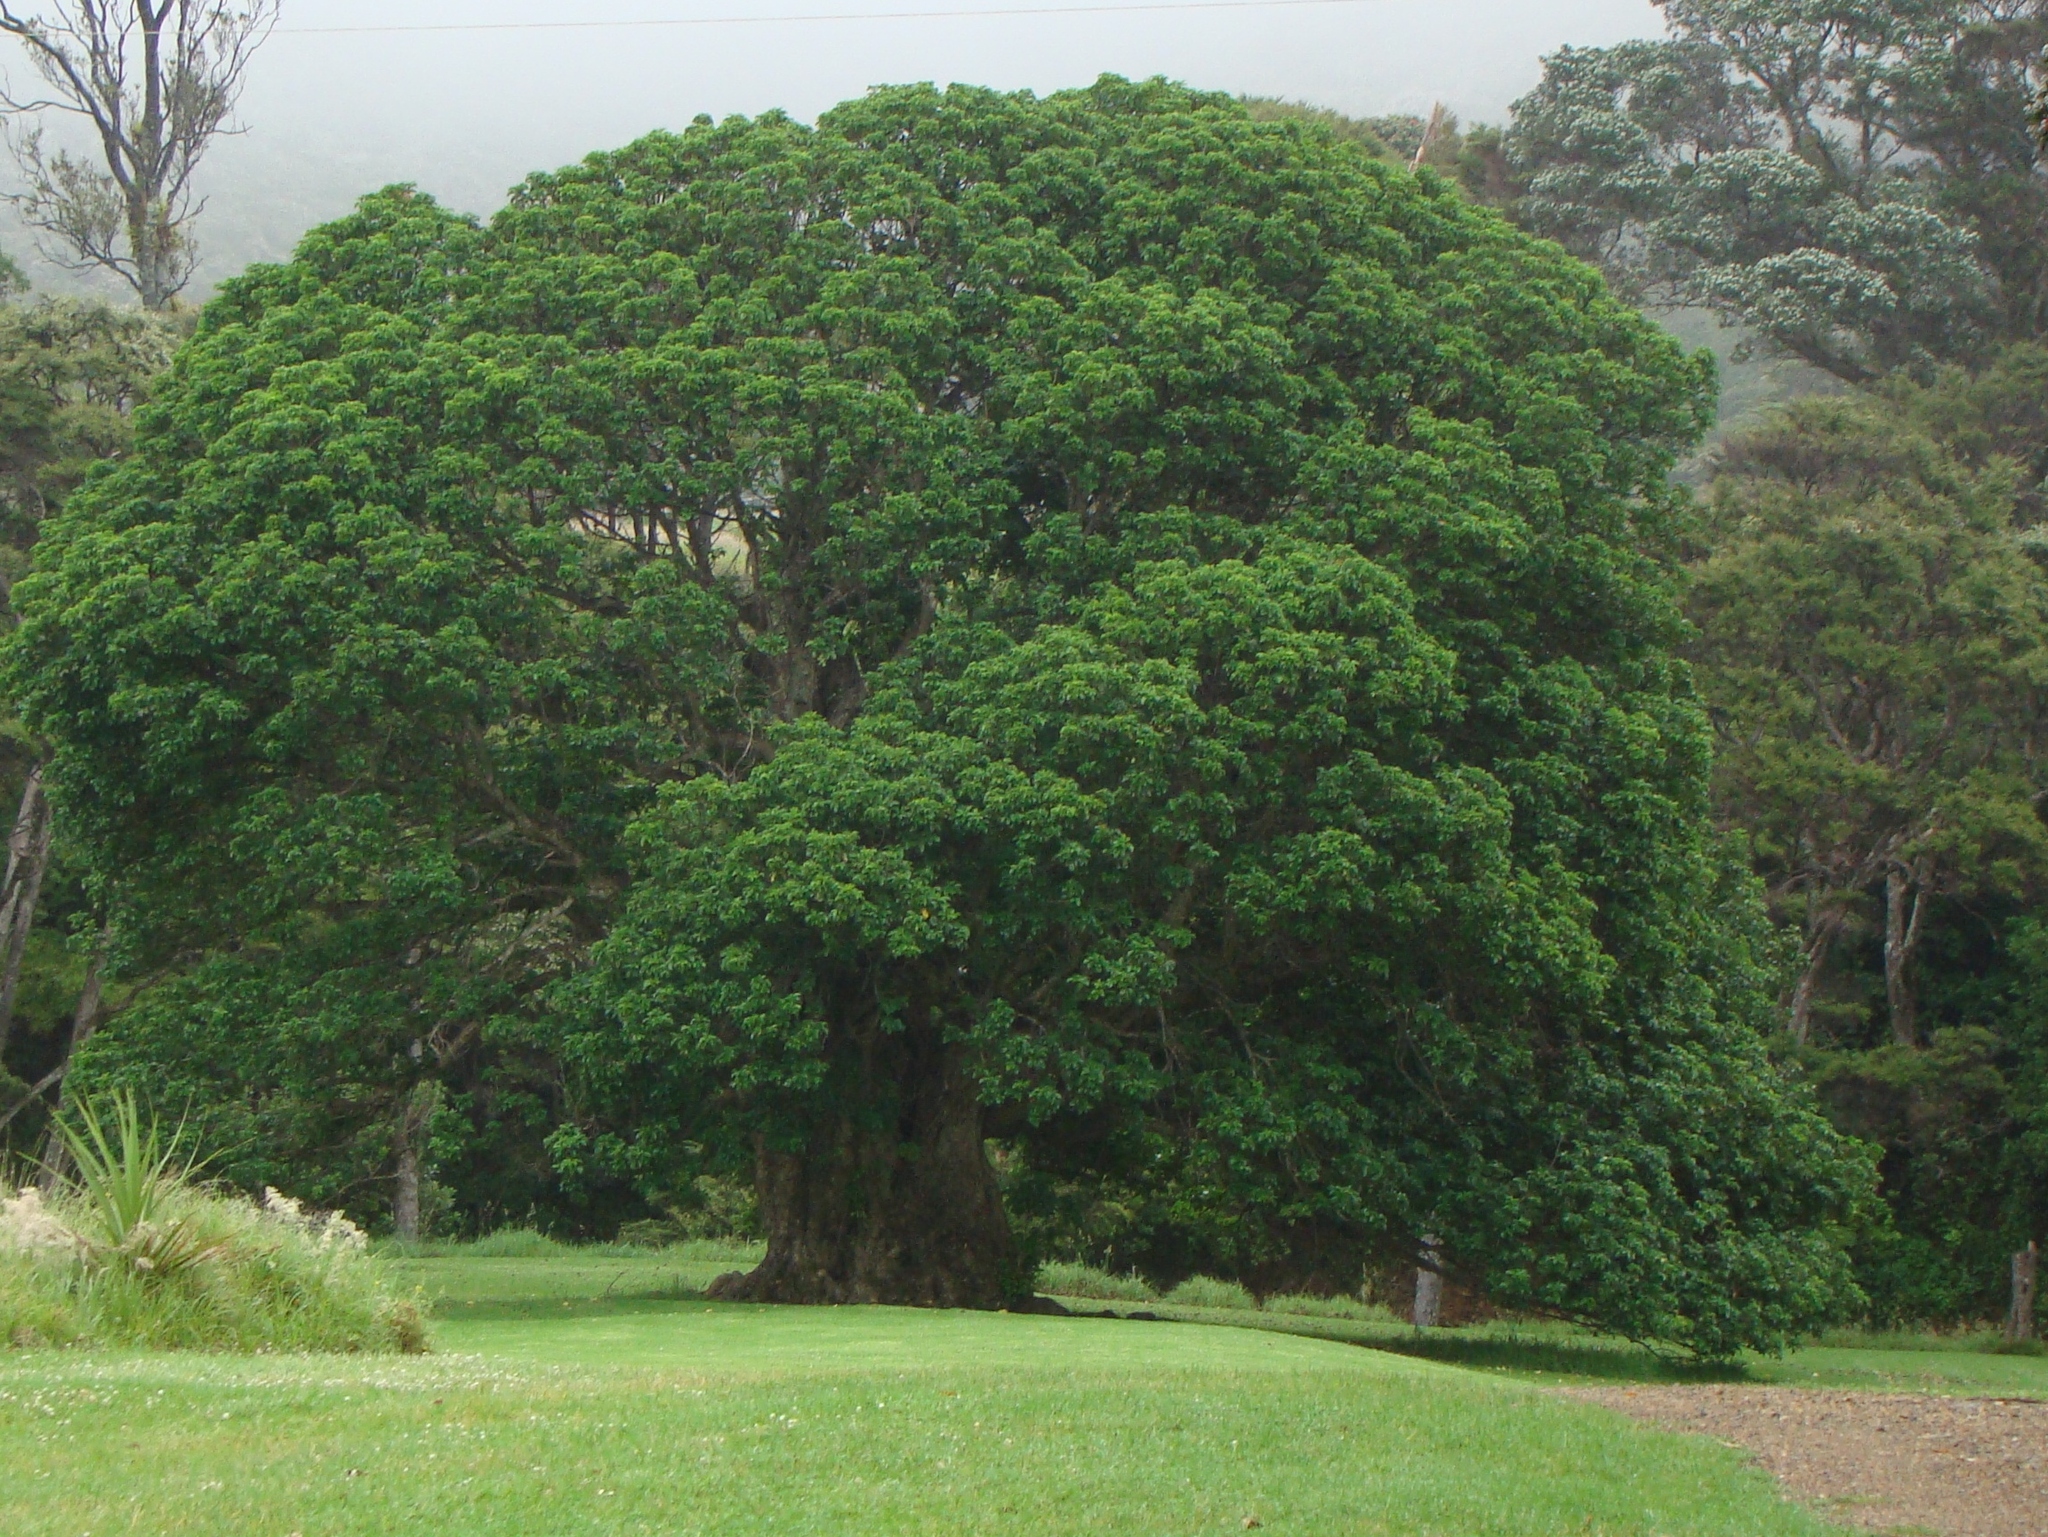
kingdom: Plantae
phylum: Tracheophyta
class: Magnoliopsida
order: Lamiales
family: Lamiaceae
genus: Vitex
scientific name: Vitex lucens
